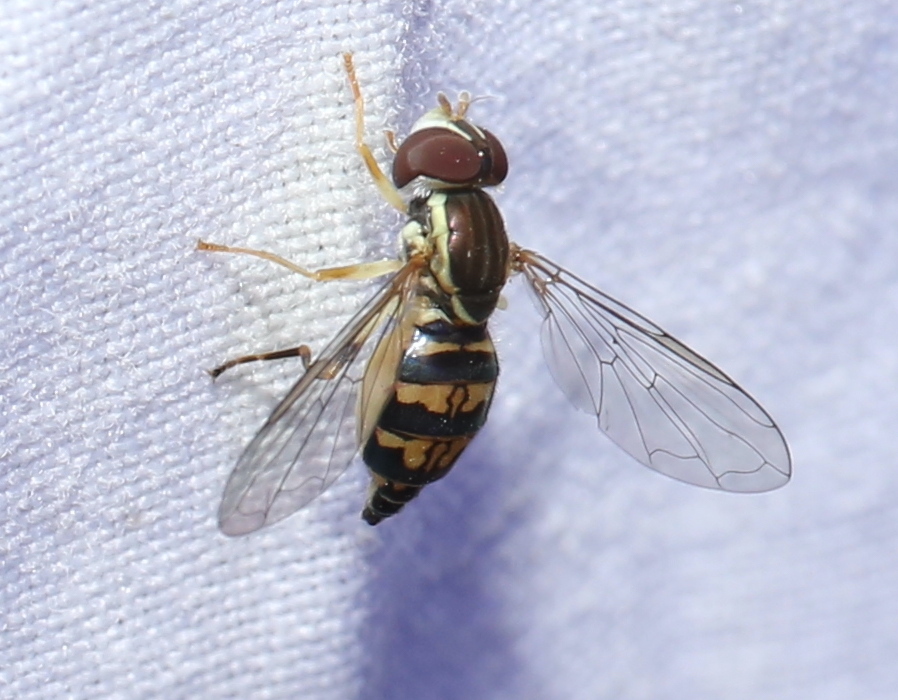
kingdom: Animalia
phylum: Arthropoda
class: Insecta
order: Diptera
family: Syrphidae
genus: Toxomerus
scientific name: Toxomerus geminatus
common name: Eastern calligrapher
